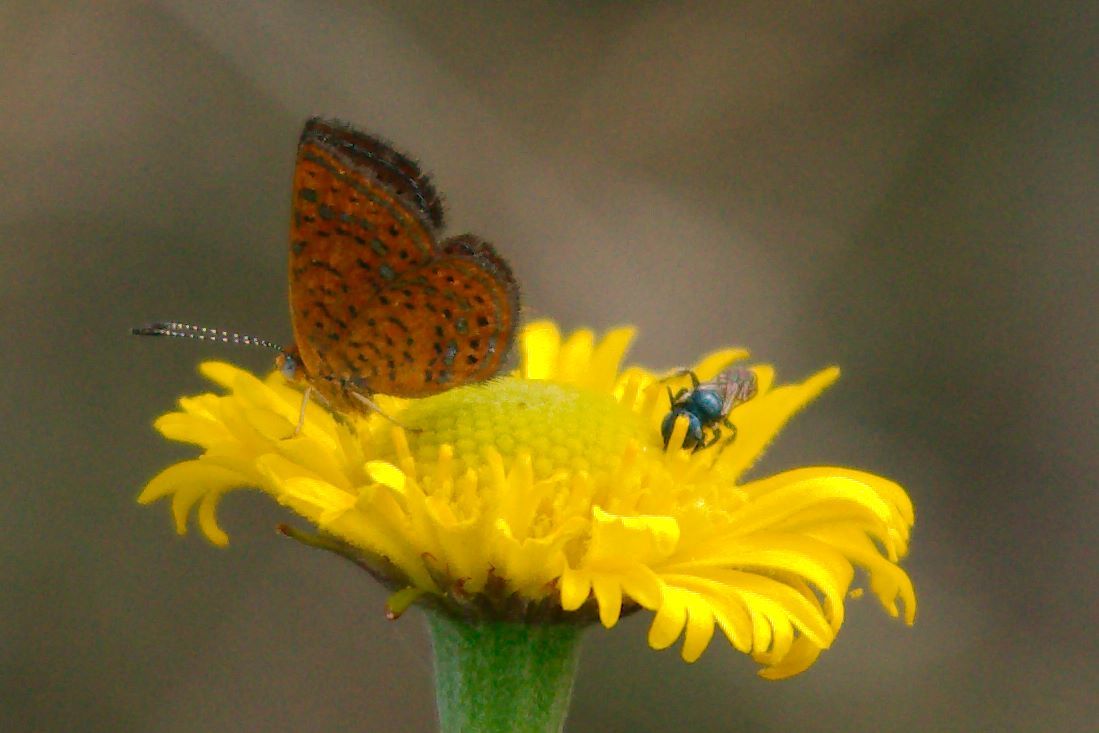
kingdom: Animalia
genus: Calephelis
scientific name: Calephelis virginiensis
